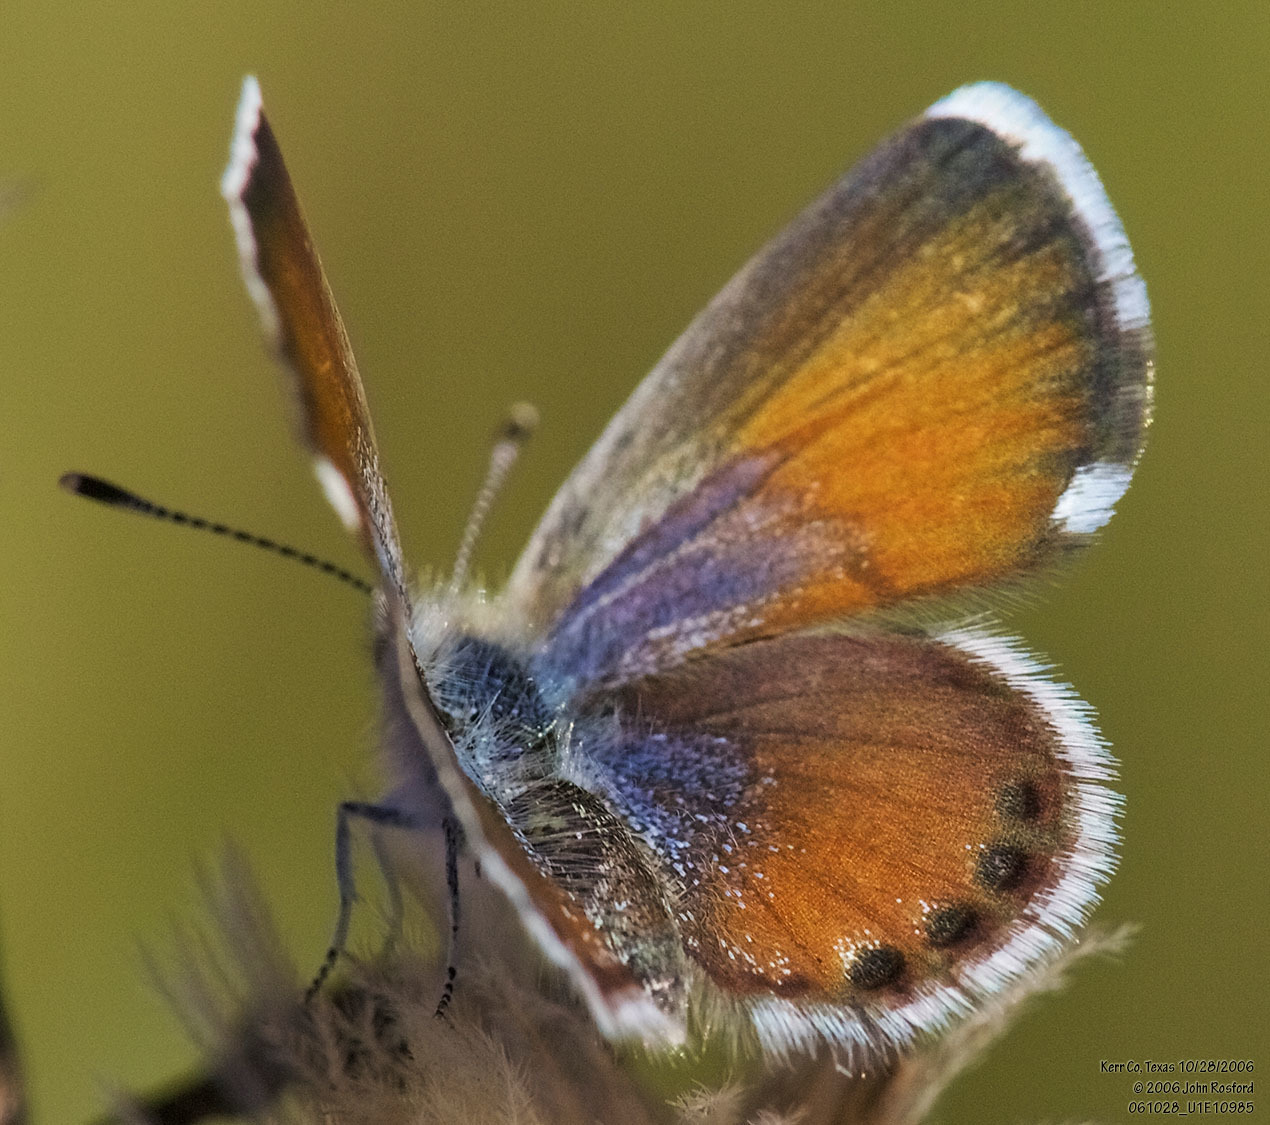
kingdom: Animalia
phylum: Arthropoda
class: Insecta
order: Lepidoptera
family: Lycaenidae
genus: Brephidium
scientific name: Brephidium exilis
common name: Pygmy blue
